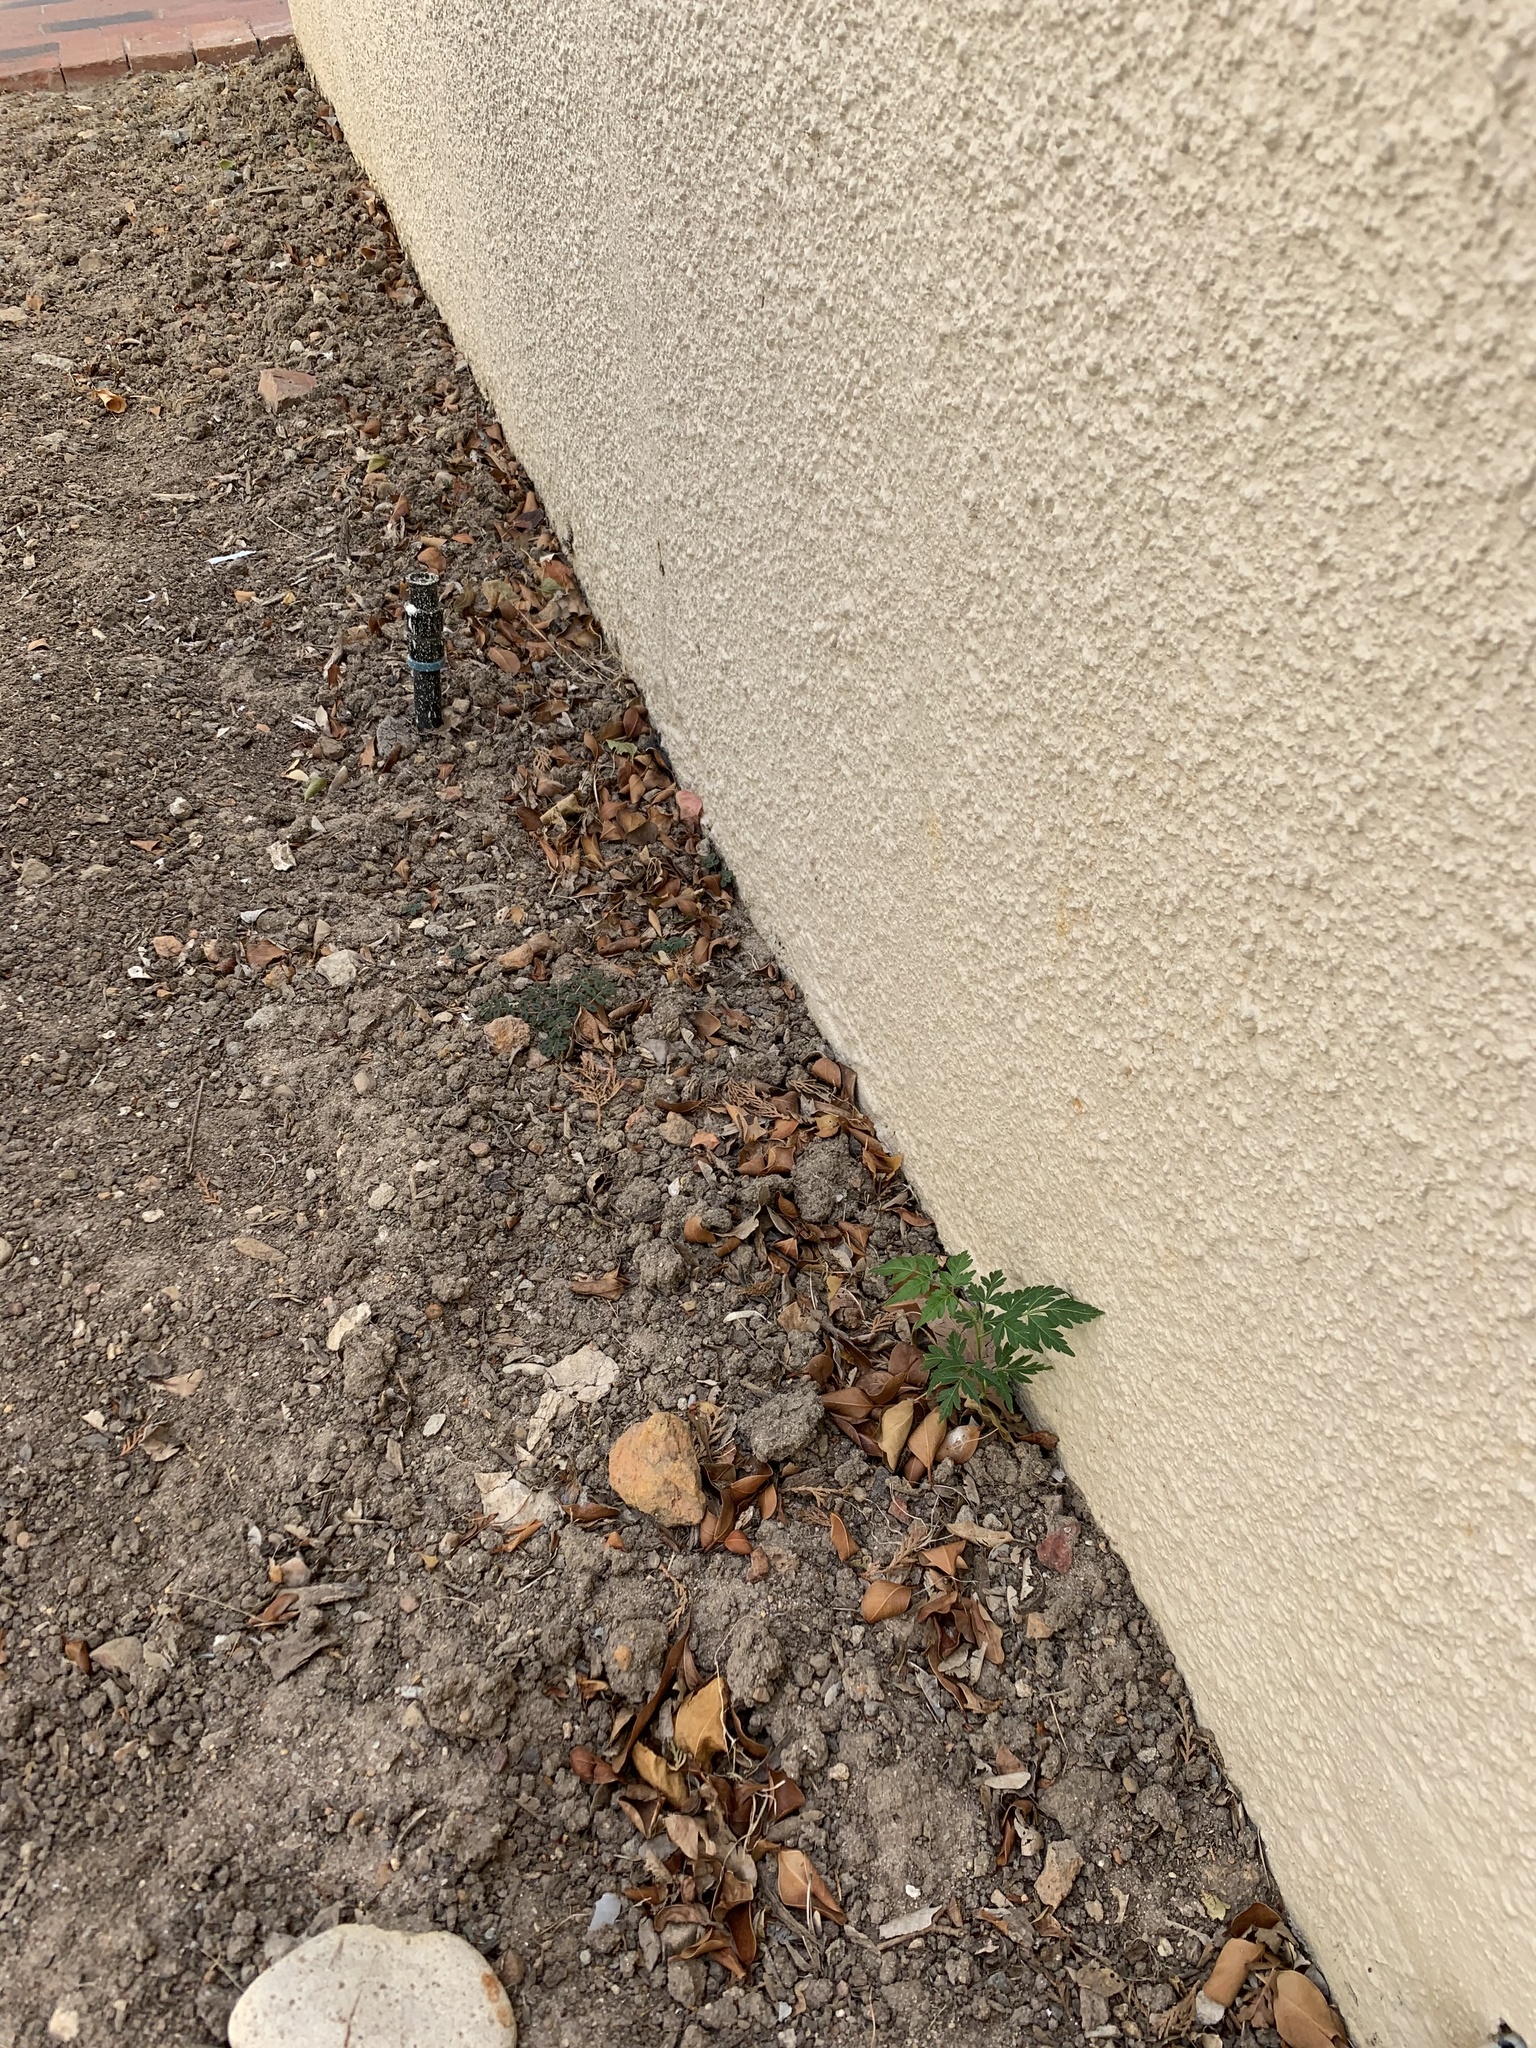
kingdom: Plantae
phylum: Tracheophyta
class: Magnoliopsida
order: Sapindales
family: Meliaceae
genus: Melia
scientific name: Melia azedarach
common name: Chinaberrytree
